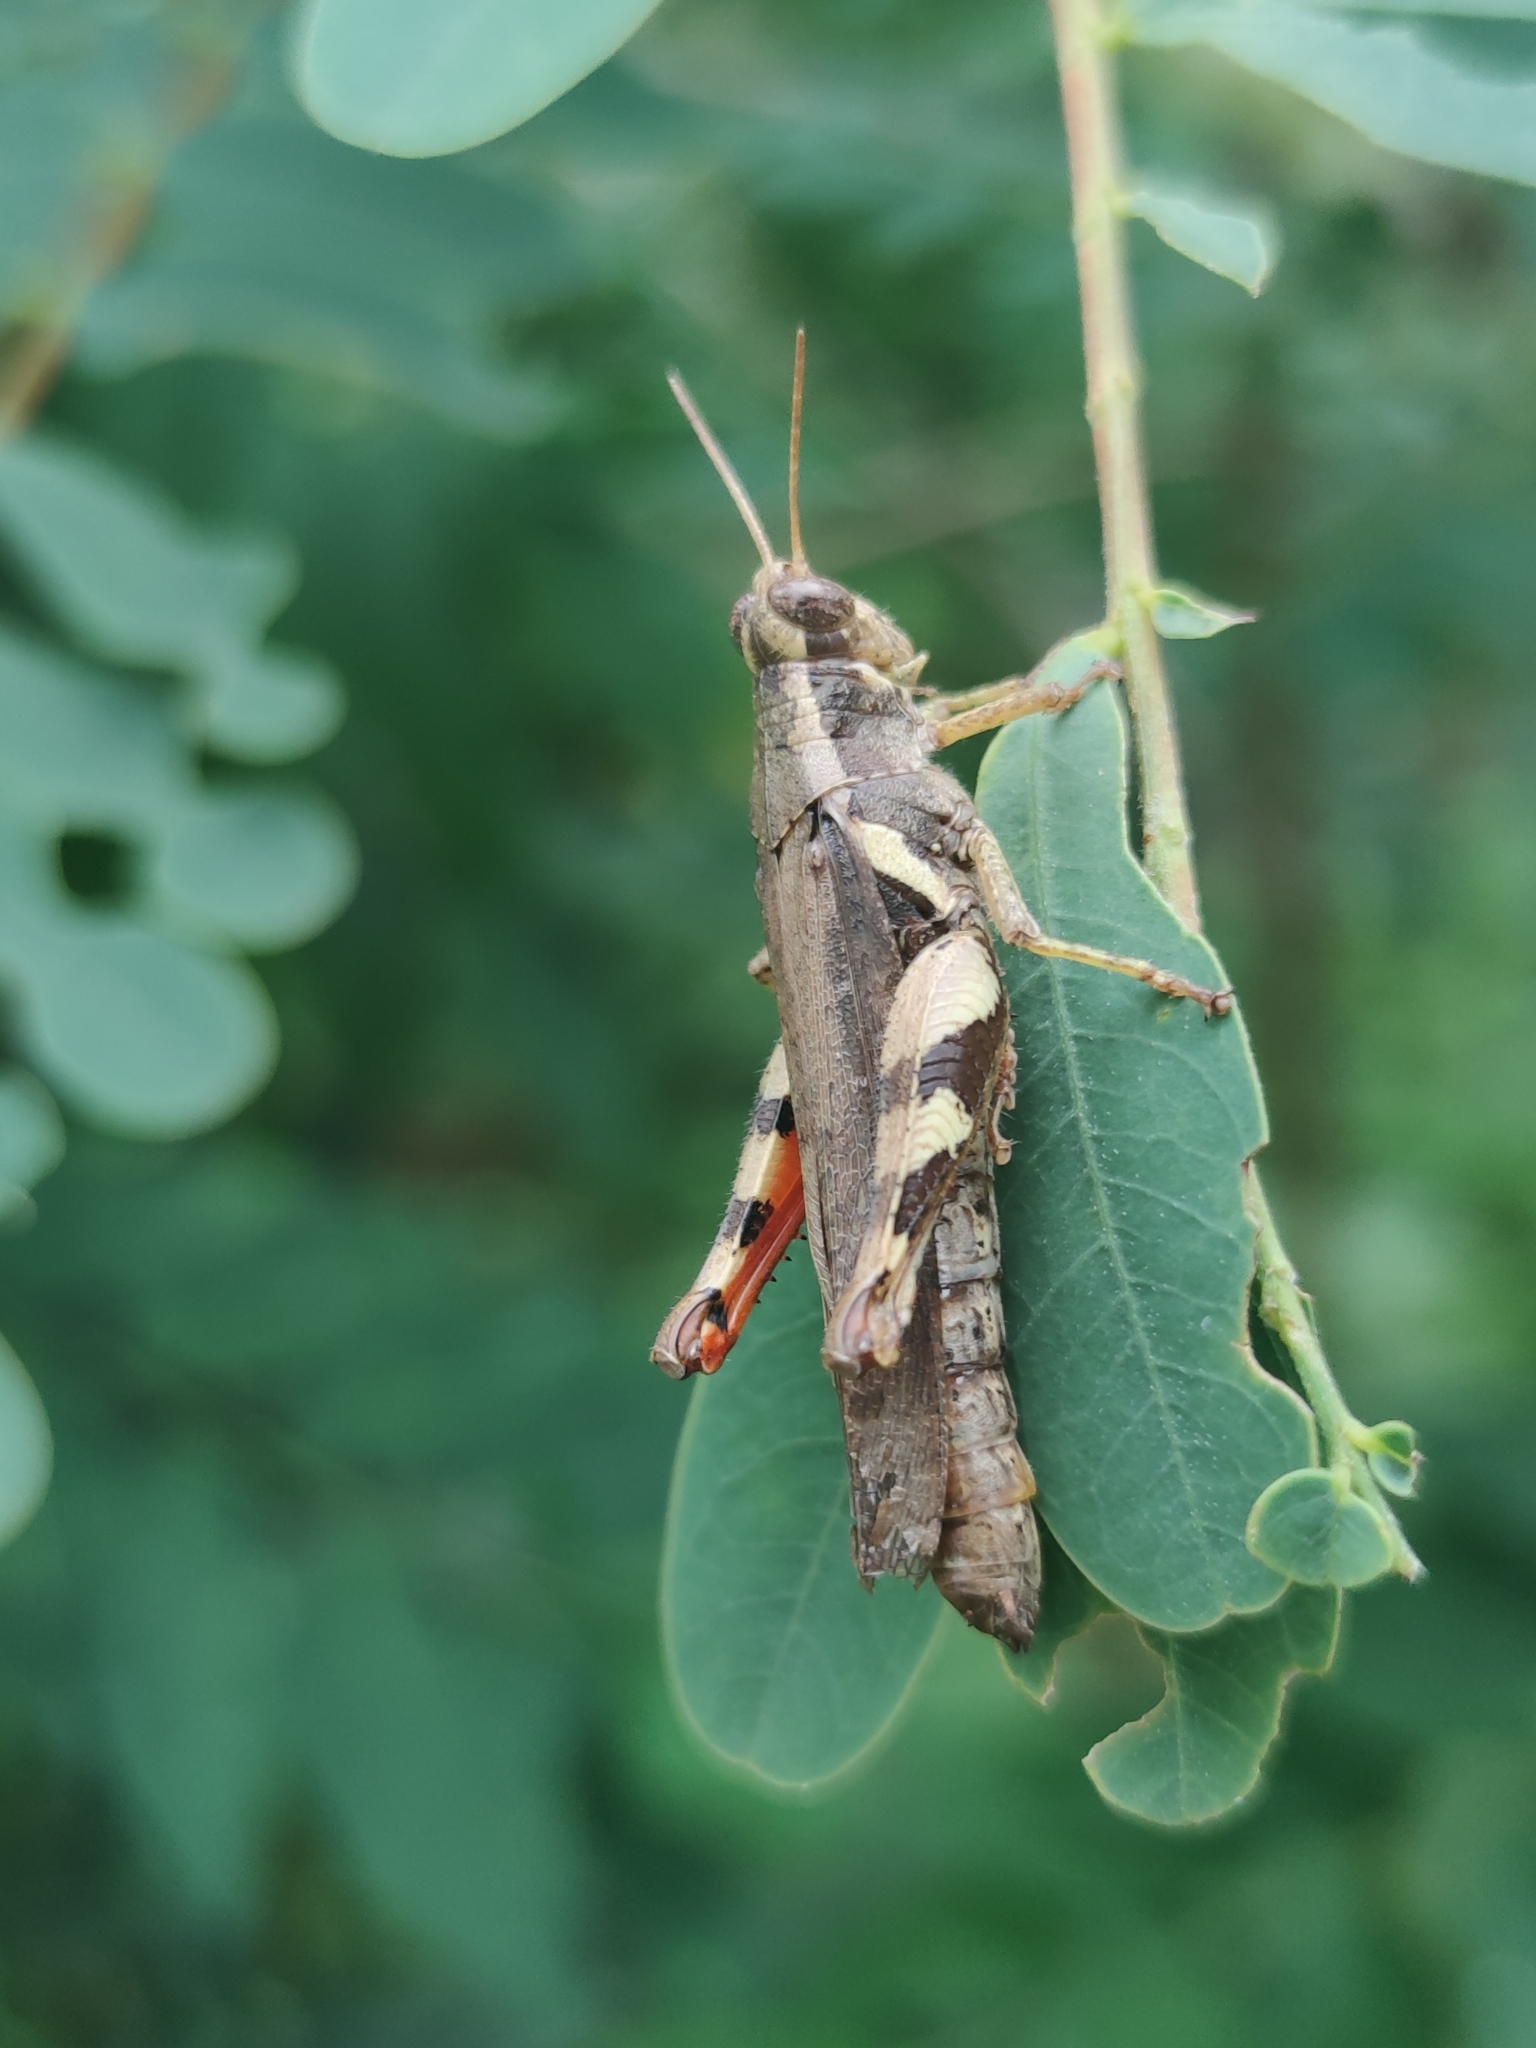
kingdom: Animalia
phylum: Arthropoda
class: Insecta
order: Orthoptera
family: Acrididae
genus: Xenocatantops
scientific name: Xenocatantops humile
